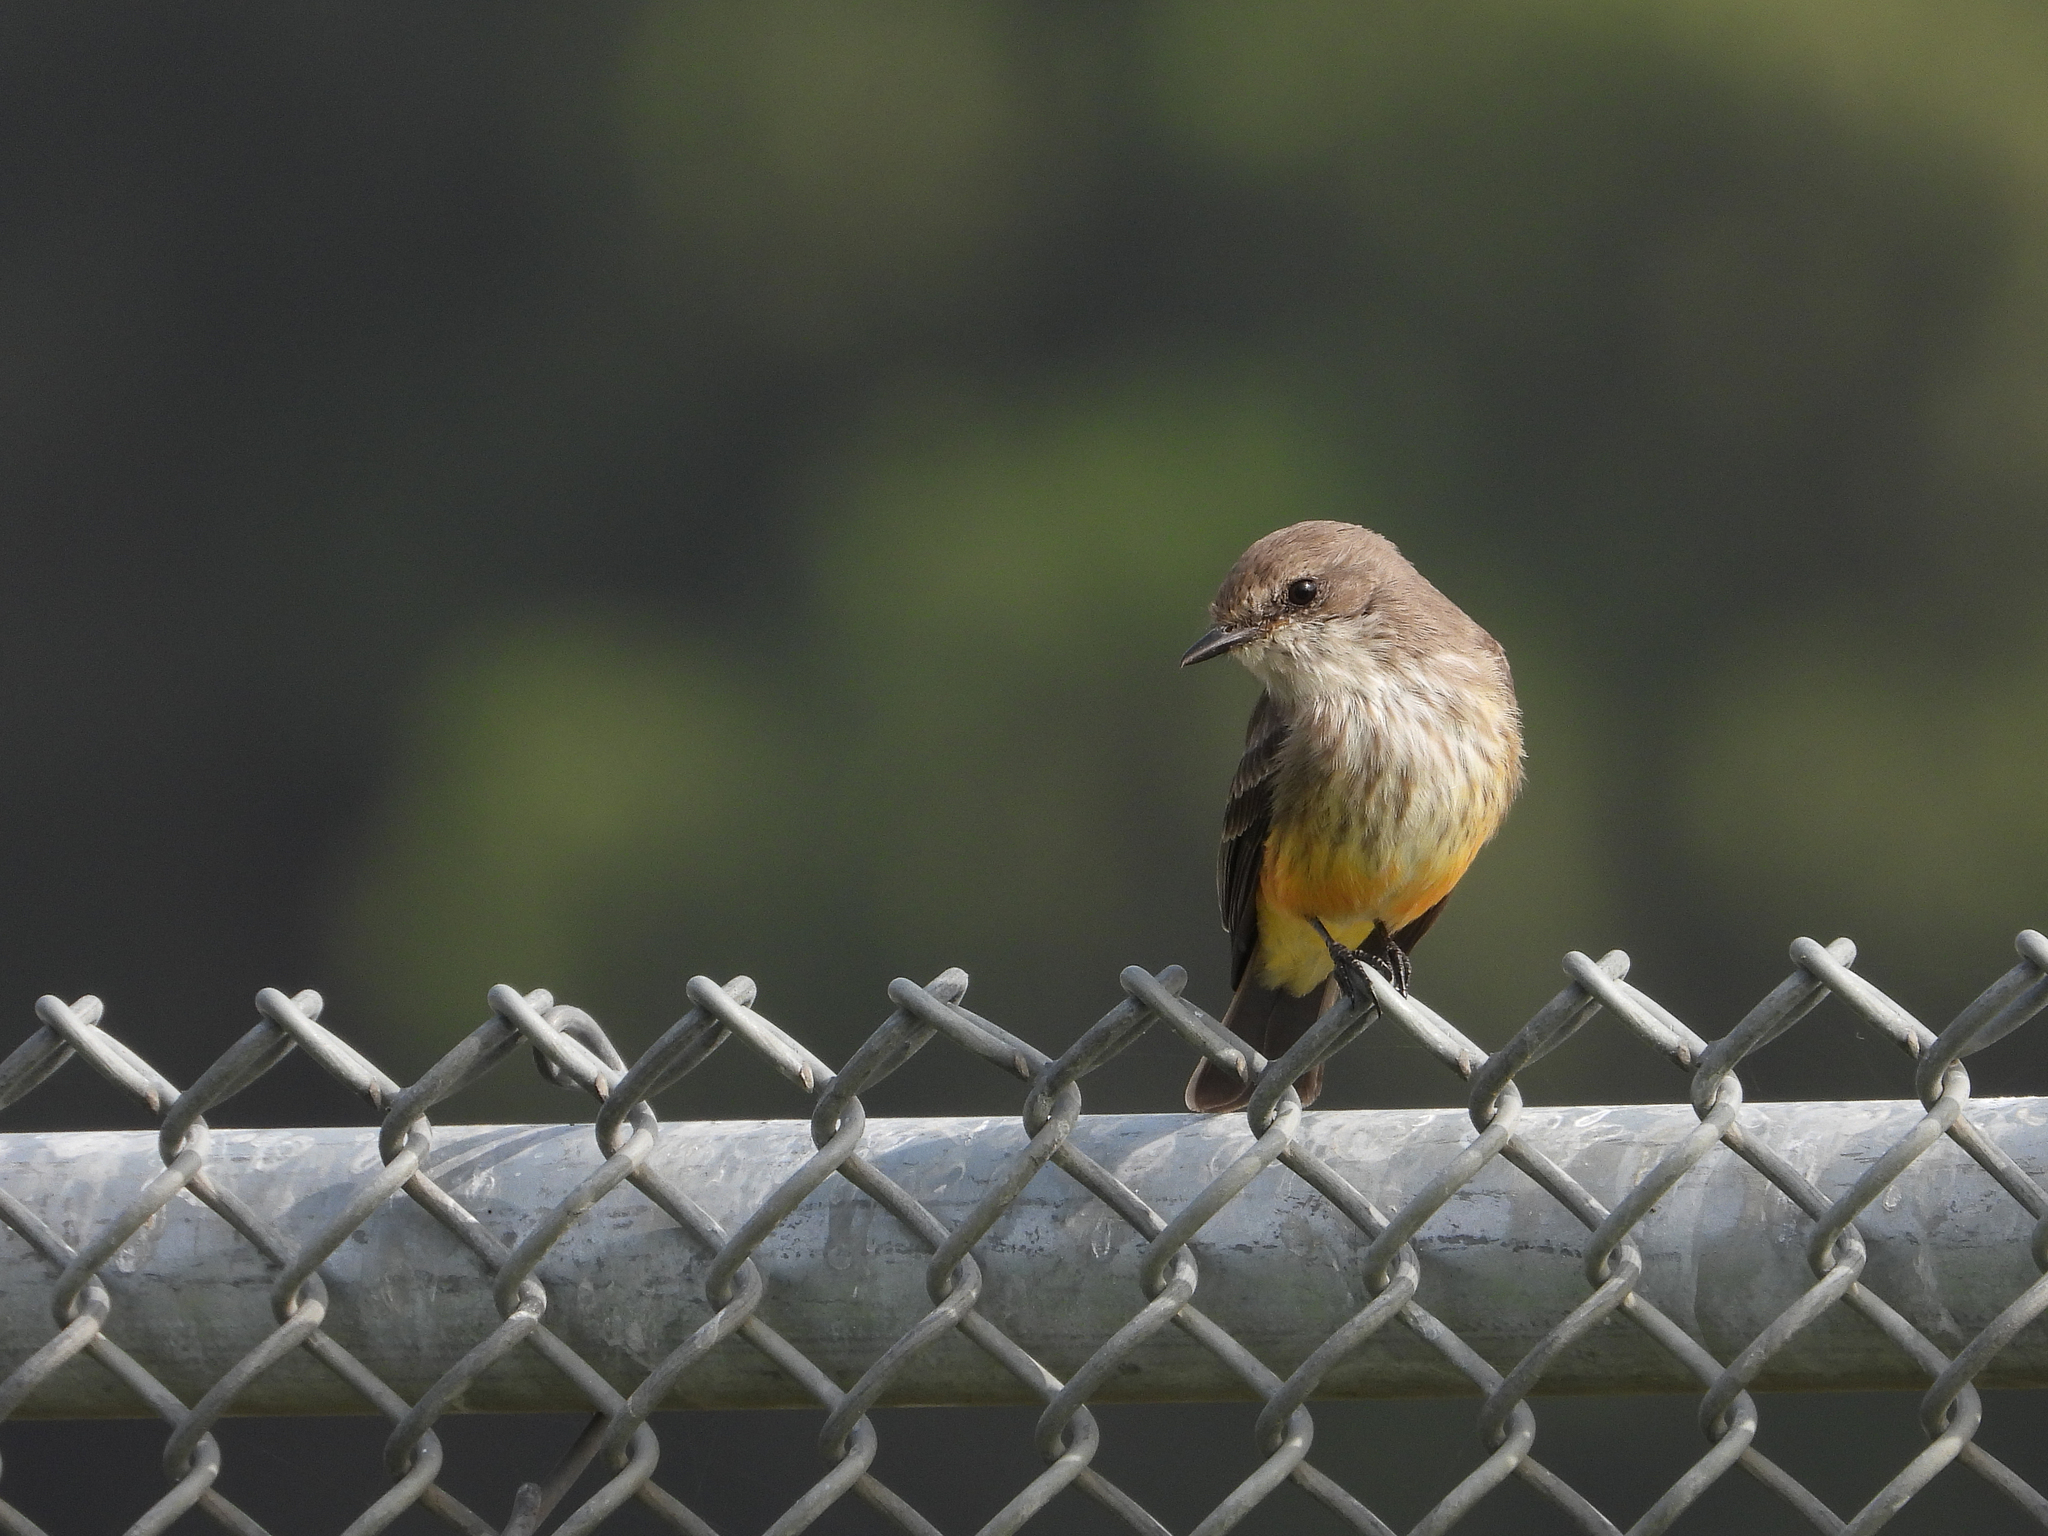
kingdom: Animalia
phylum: Chordata
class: Aves
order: Passeriformes
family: Tyrannidae
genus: Pyrocephalus
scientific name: Pyrocephalus rubinus
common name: Vermilion flycatcher
